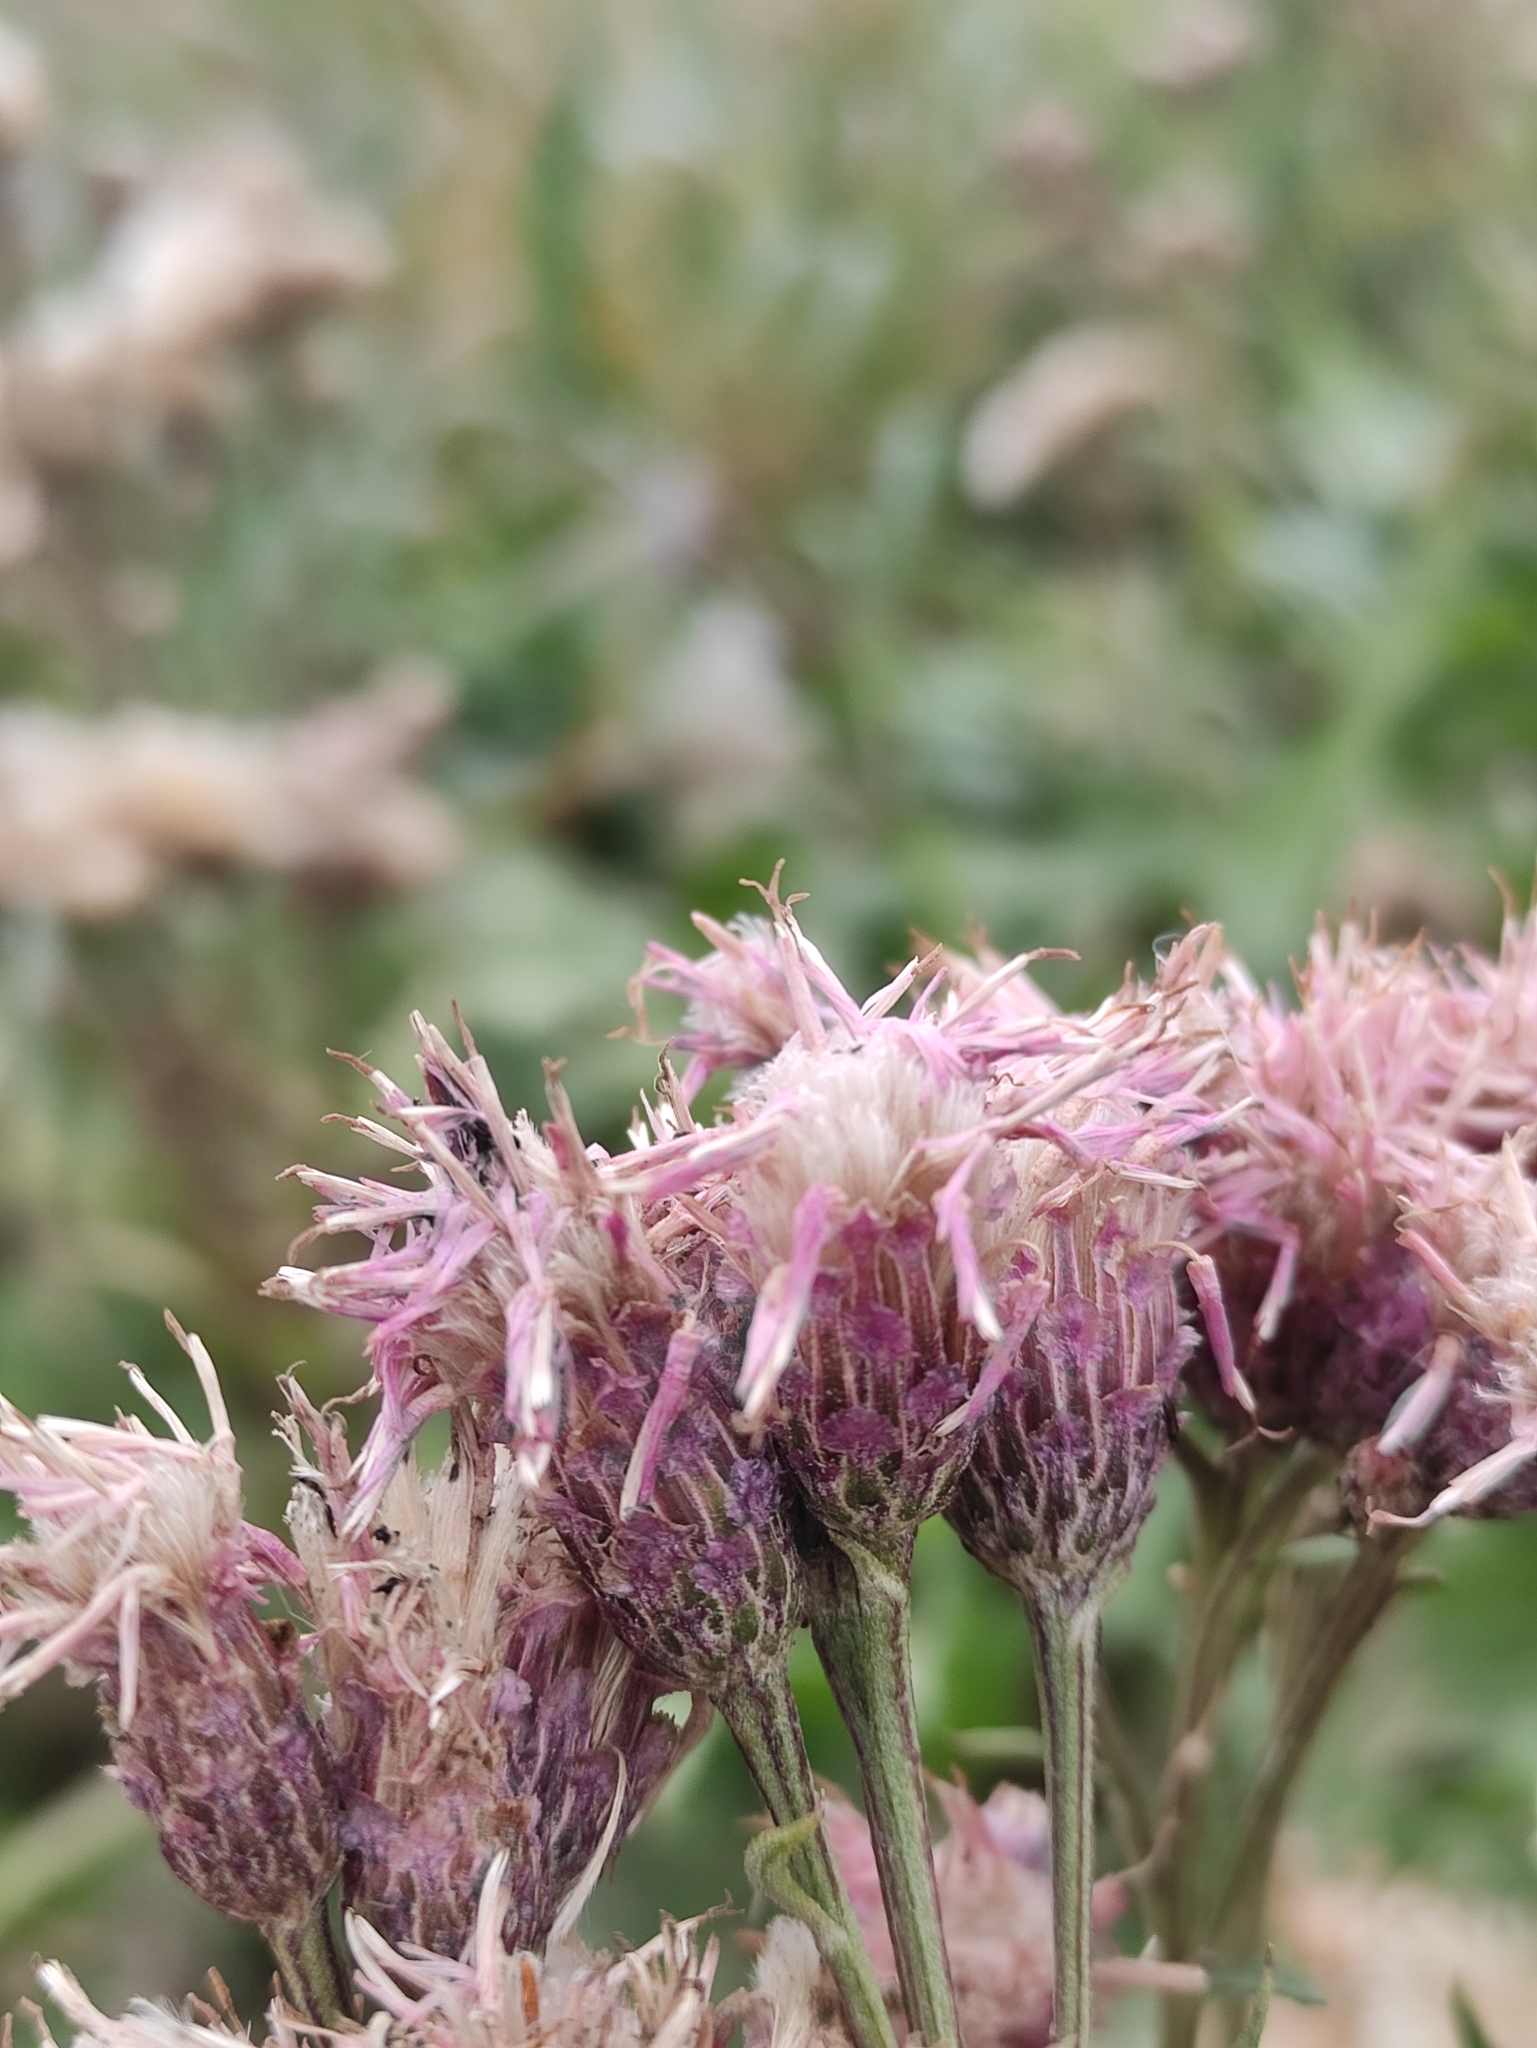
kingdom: Plantae
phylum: Tracheophyta
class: Magnoliopsida
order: Asterales
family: Asteraceae
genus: Saussurea
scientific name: Saussurea amara
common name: Alberta sawwort
